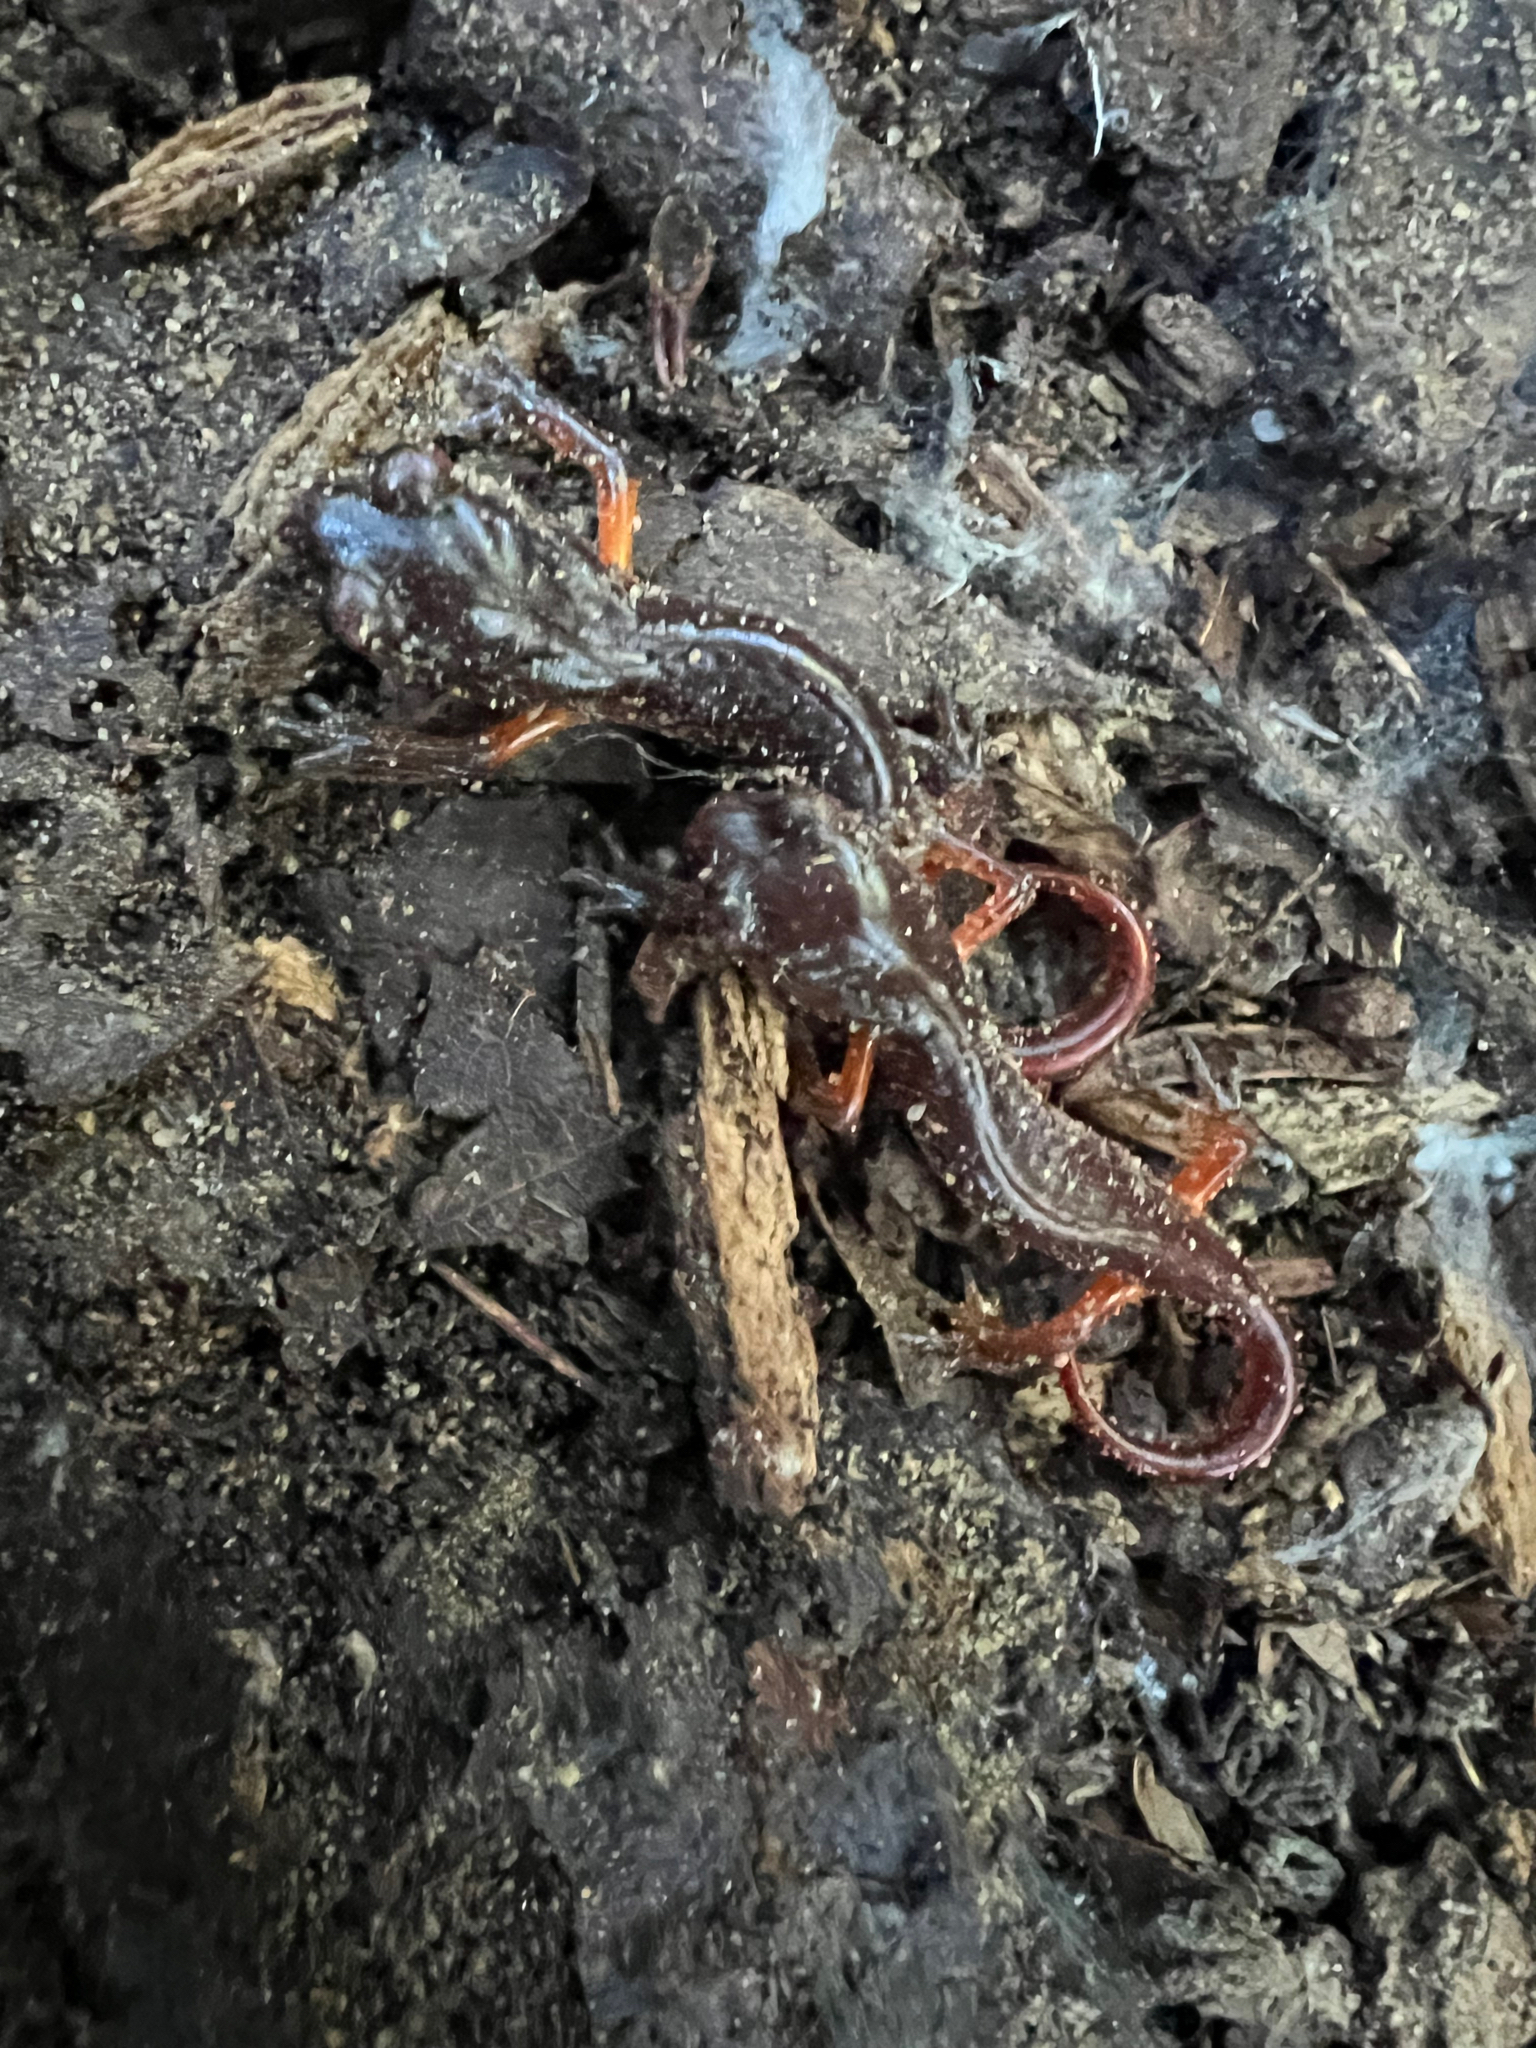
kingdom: Animalia
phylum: Chordata
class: Amphibia
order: Caudata
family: Plethodontidae
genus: Ensatina
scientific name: Ensatina eschscholtzii
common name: Ensatina
